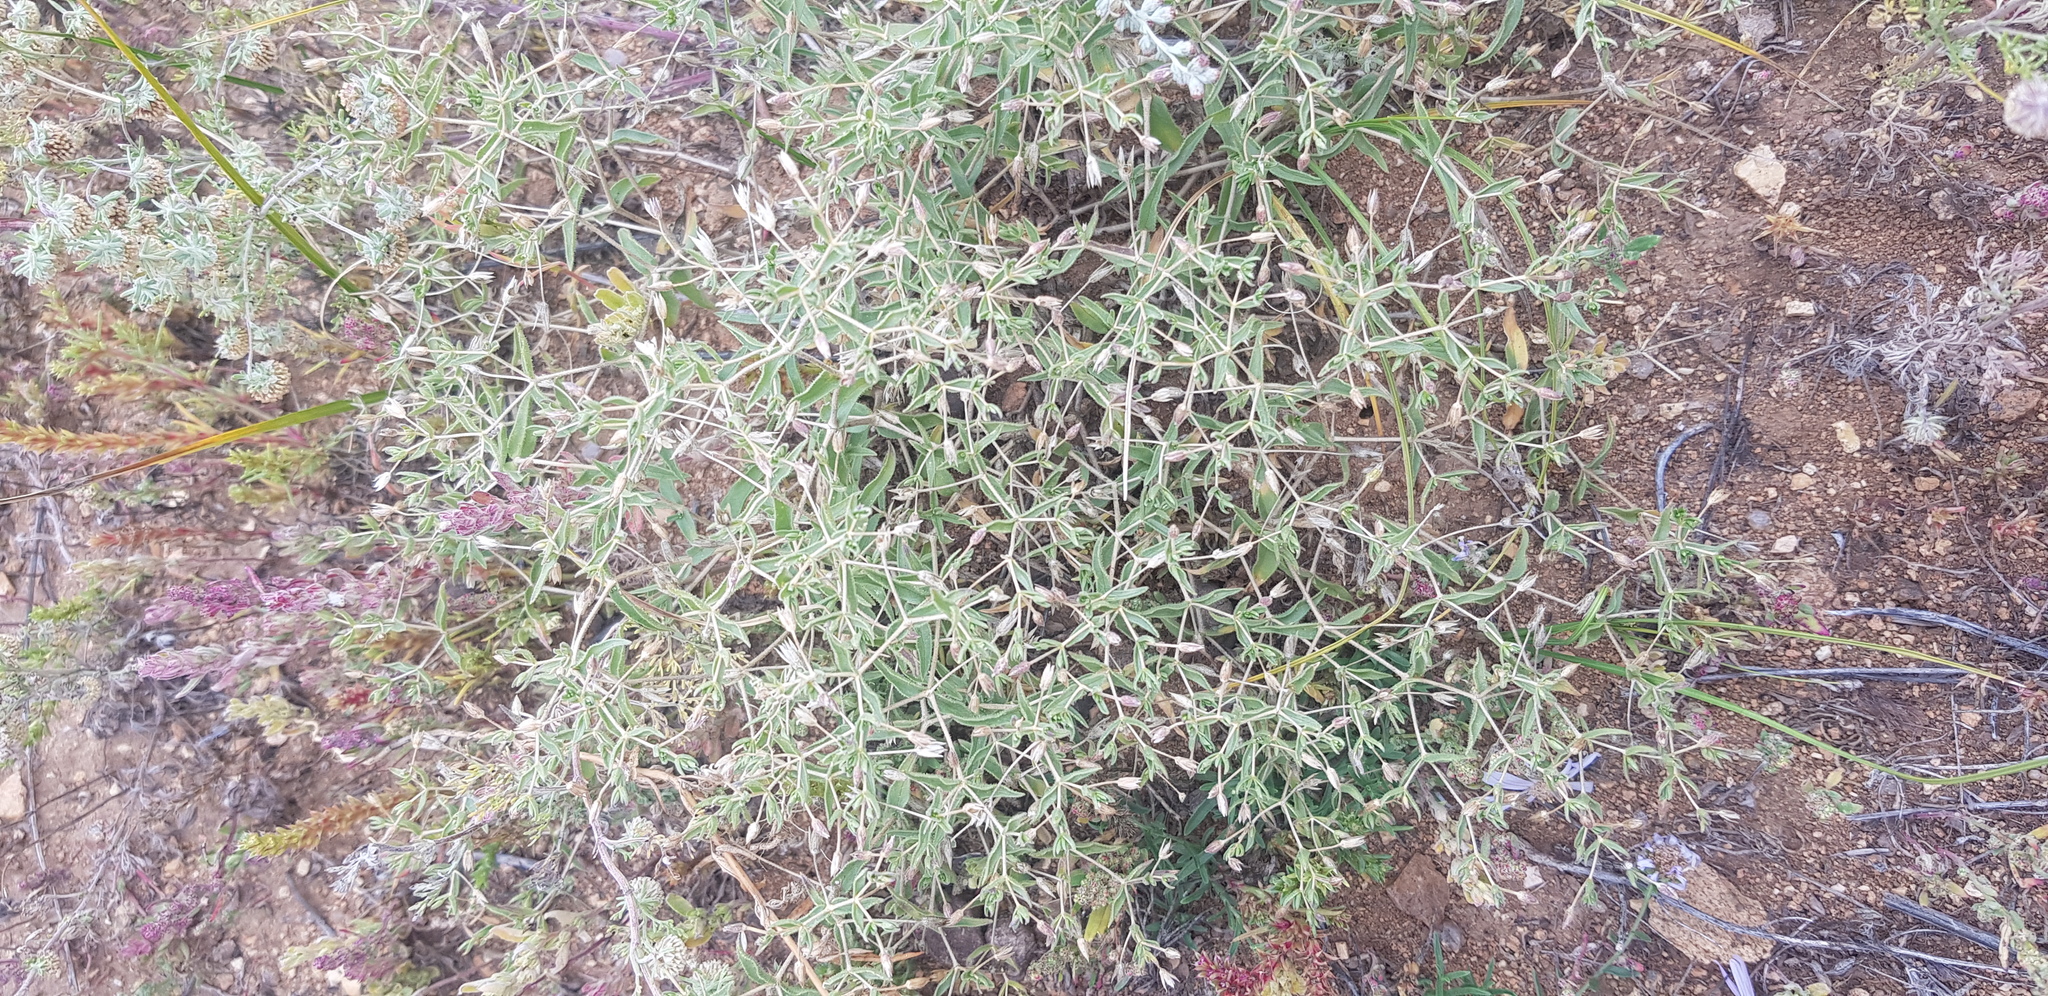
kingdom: Plantae
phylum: Tracheophyta
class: Magnoliopsida
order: Caryophyllales
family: Caryophyllaceae
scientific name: Caryophyllaceae
